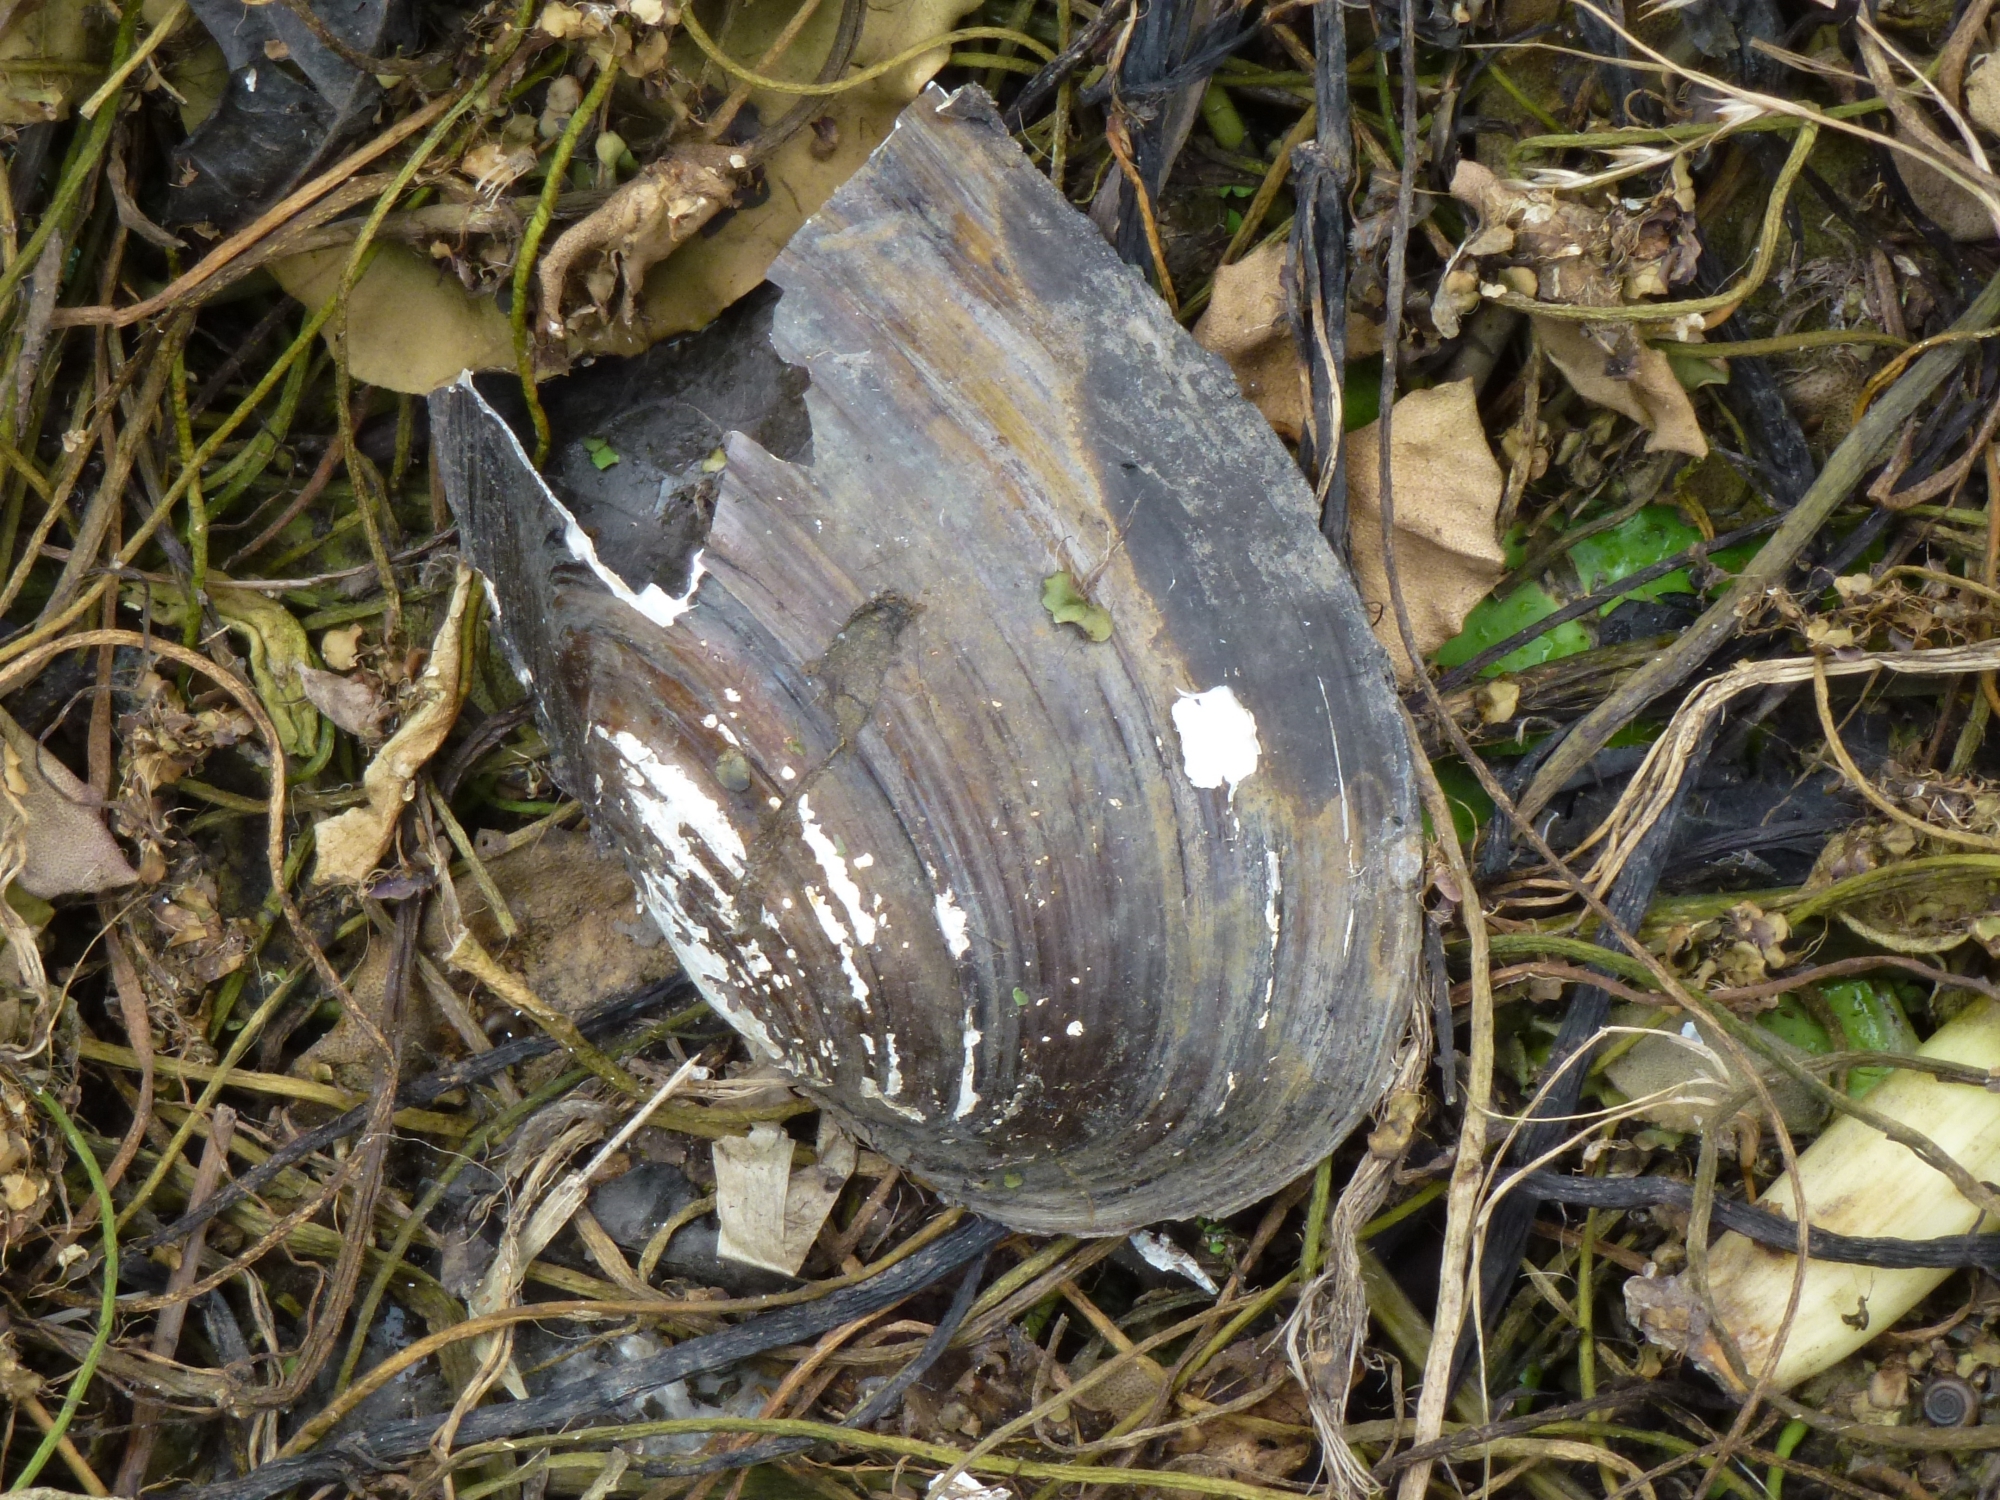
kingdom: Animalia
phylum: Mollusca
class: Bivalvia
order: Unionida
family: Unionidae
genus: Anodonta
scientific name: Anodonta cygnea
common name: Swan mussel
